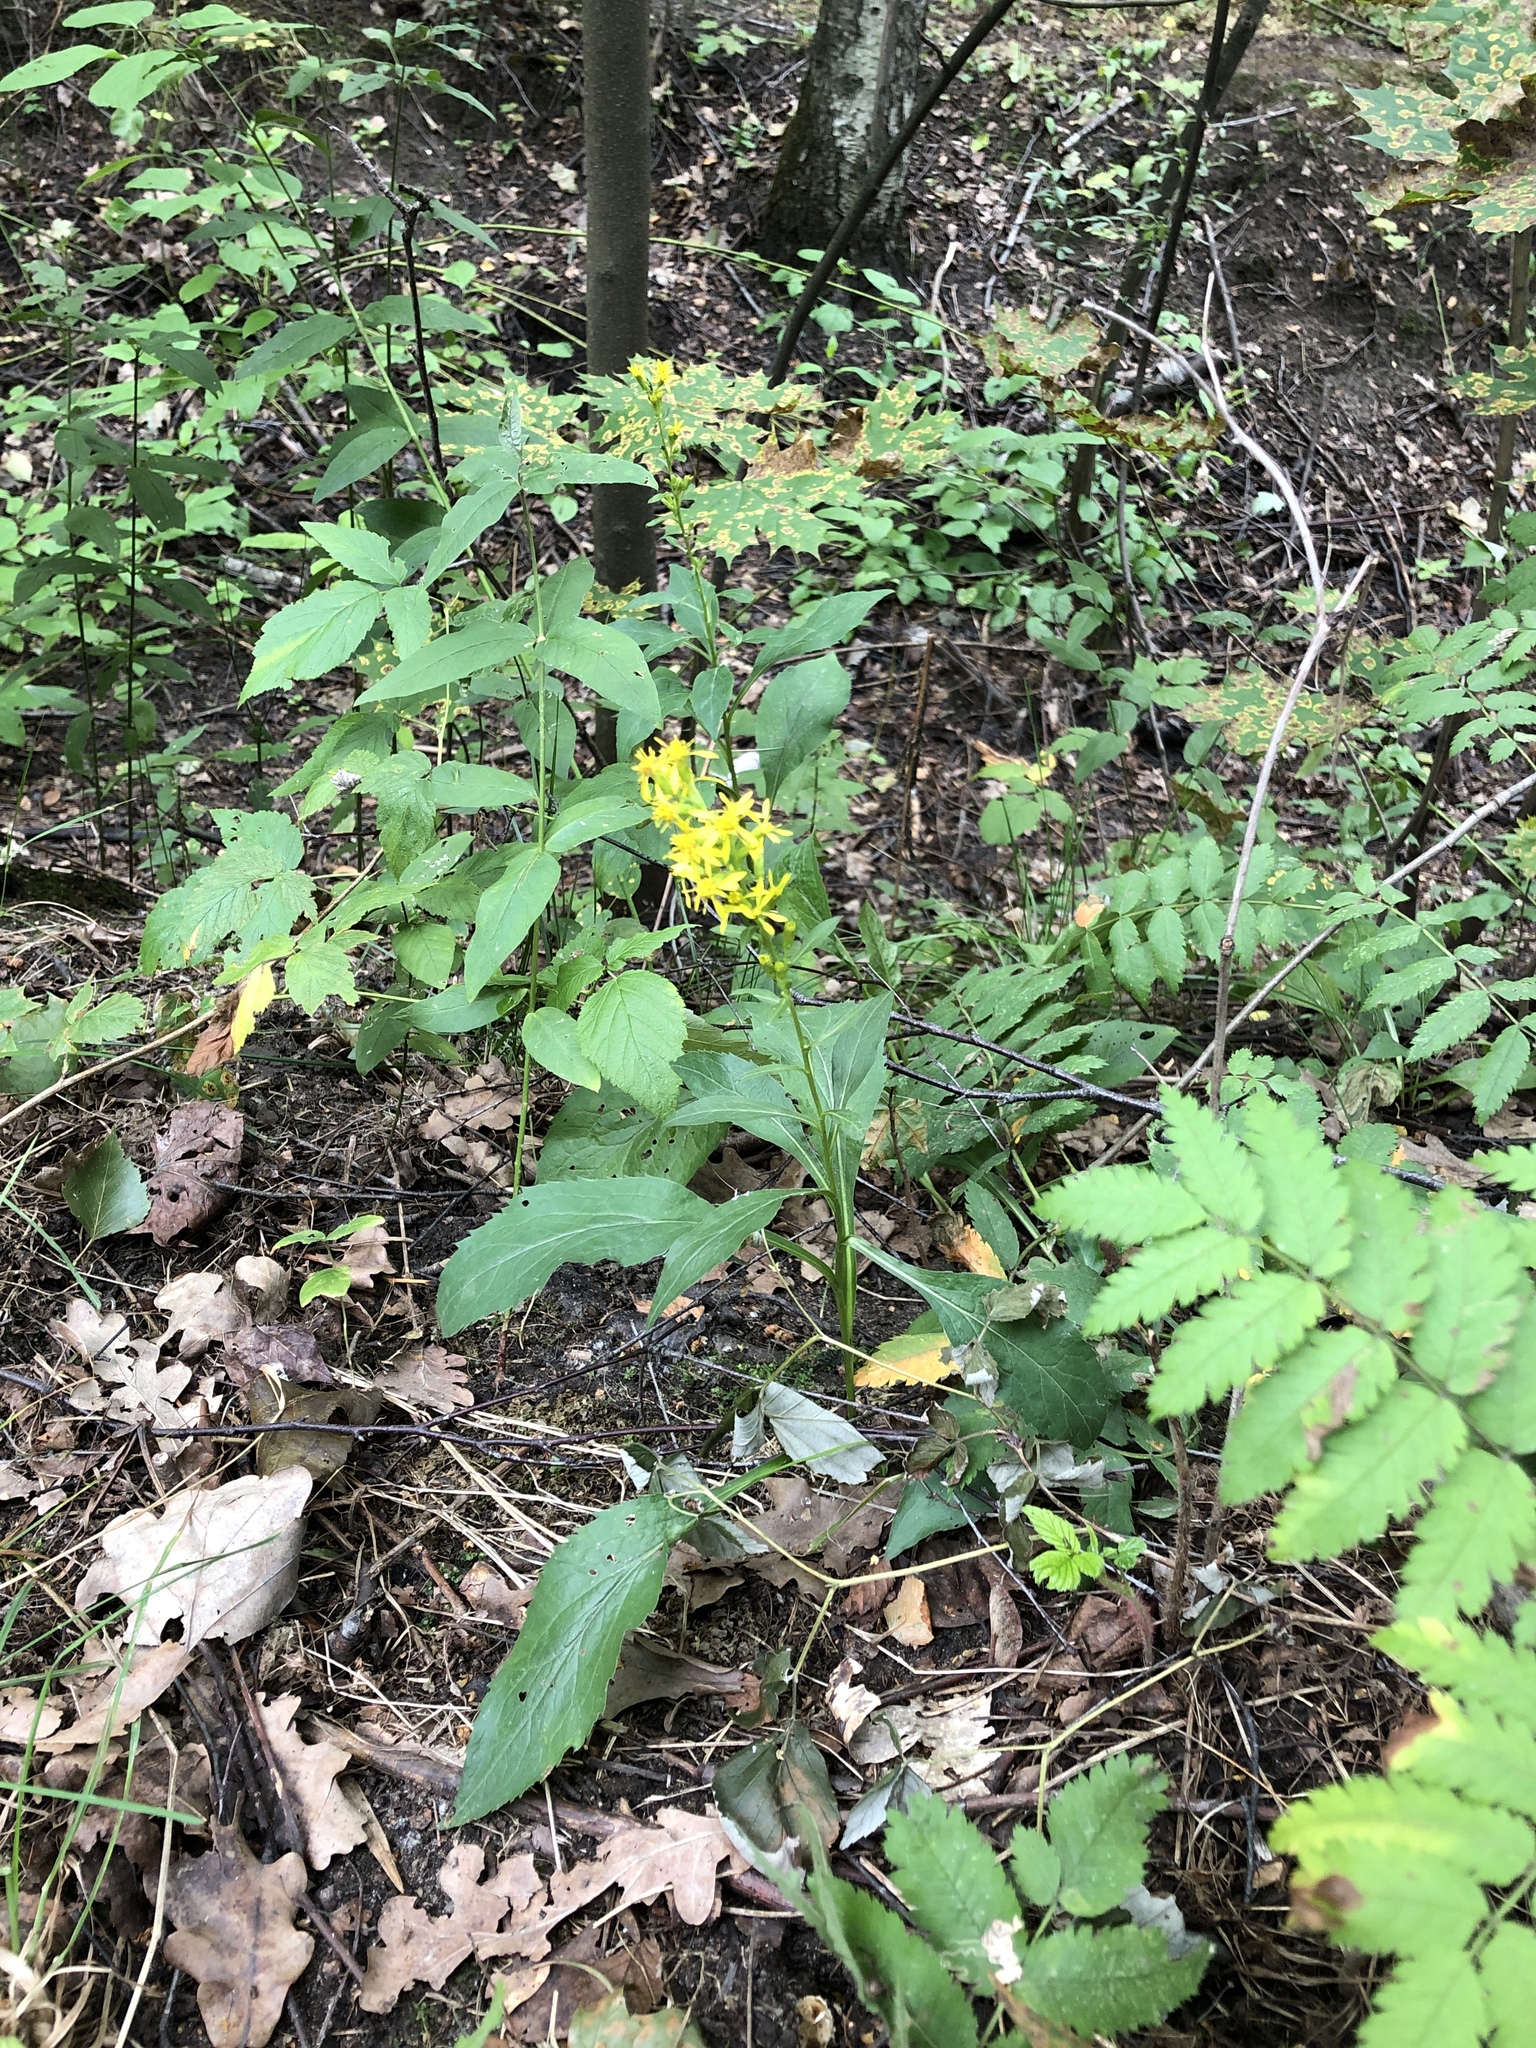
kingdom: Plantae
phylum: Tracheophyta
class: Magnoliopsida
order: Asterales
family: Asteraceae
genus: Solidago
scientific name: Solidago virgaurea
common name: Goldenrod
